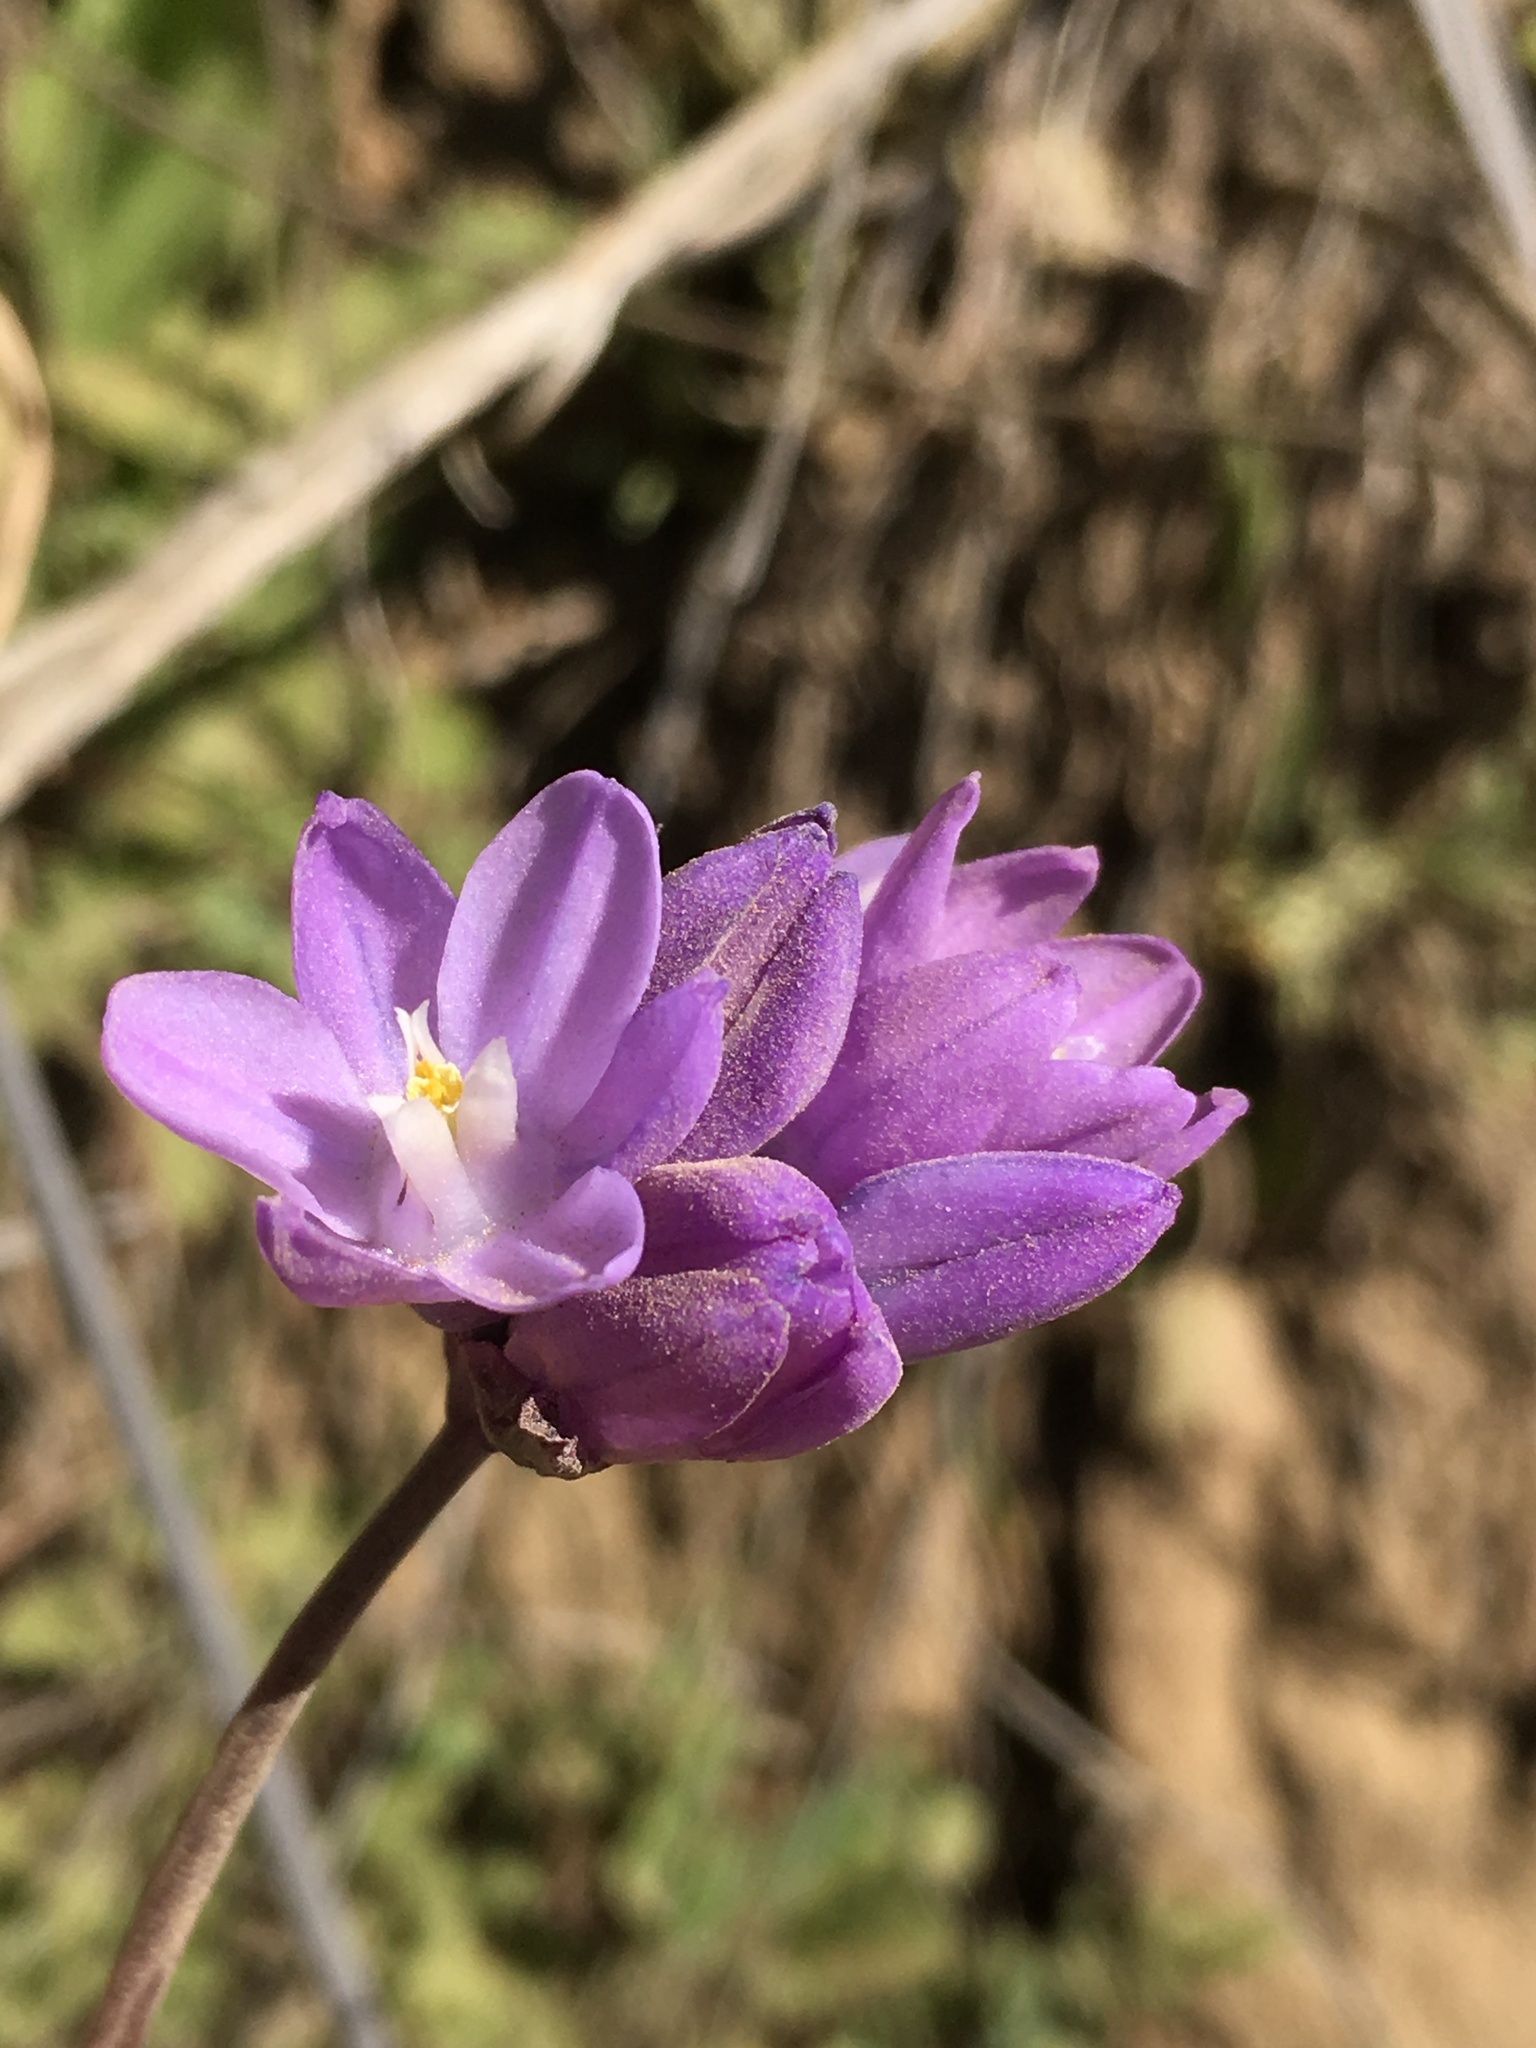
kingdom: Plantae
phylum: Tracheophyta
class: Liliopsida
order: Asparagales
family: Asparagaceae
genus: Dipterostemon
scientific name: Dipterostemon capitatus
